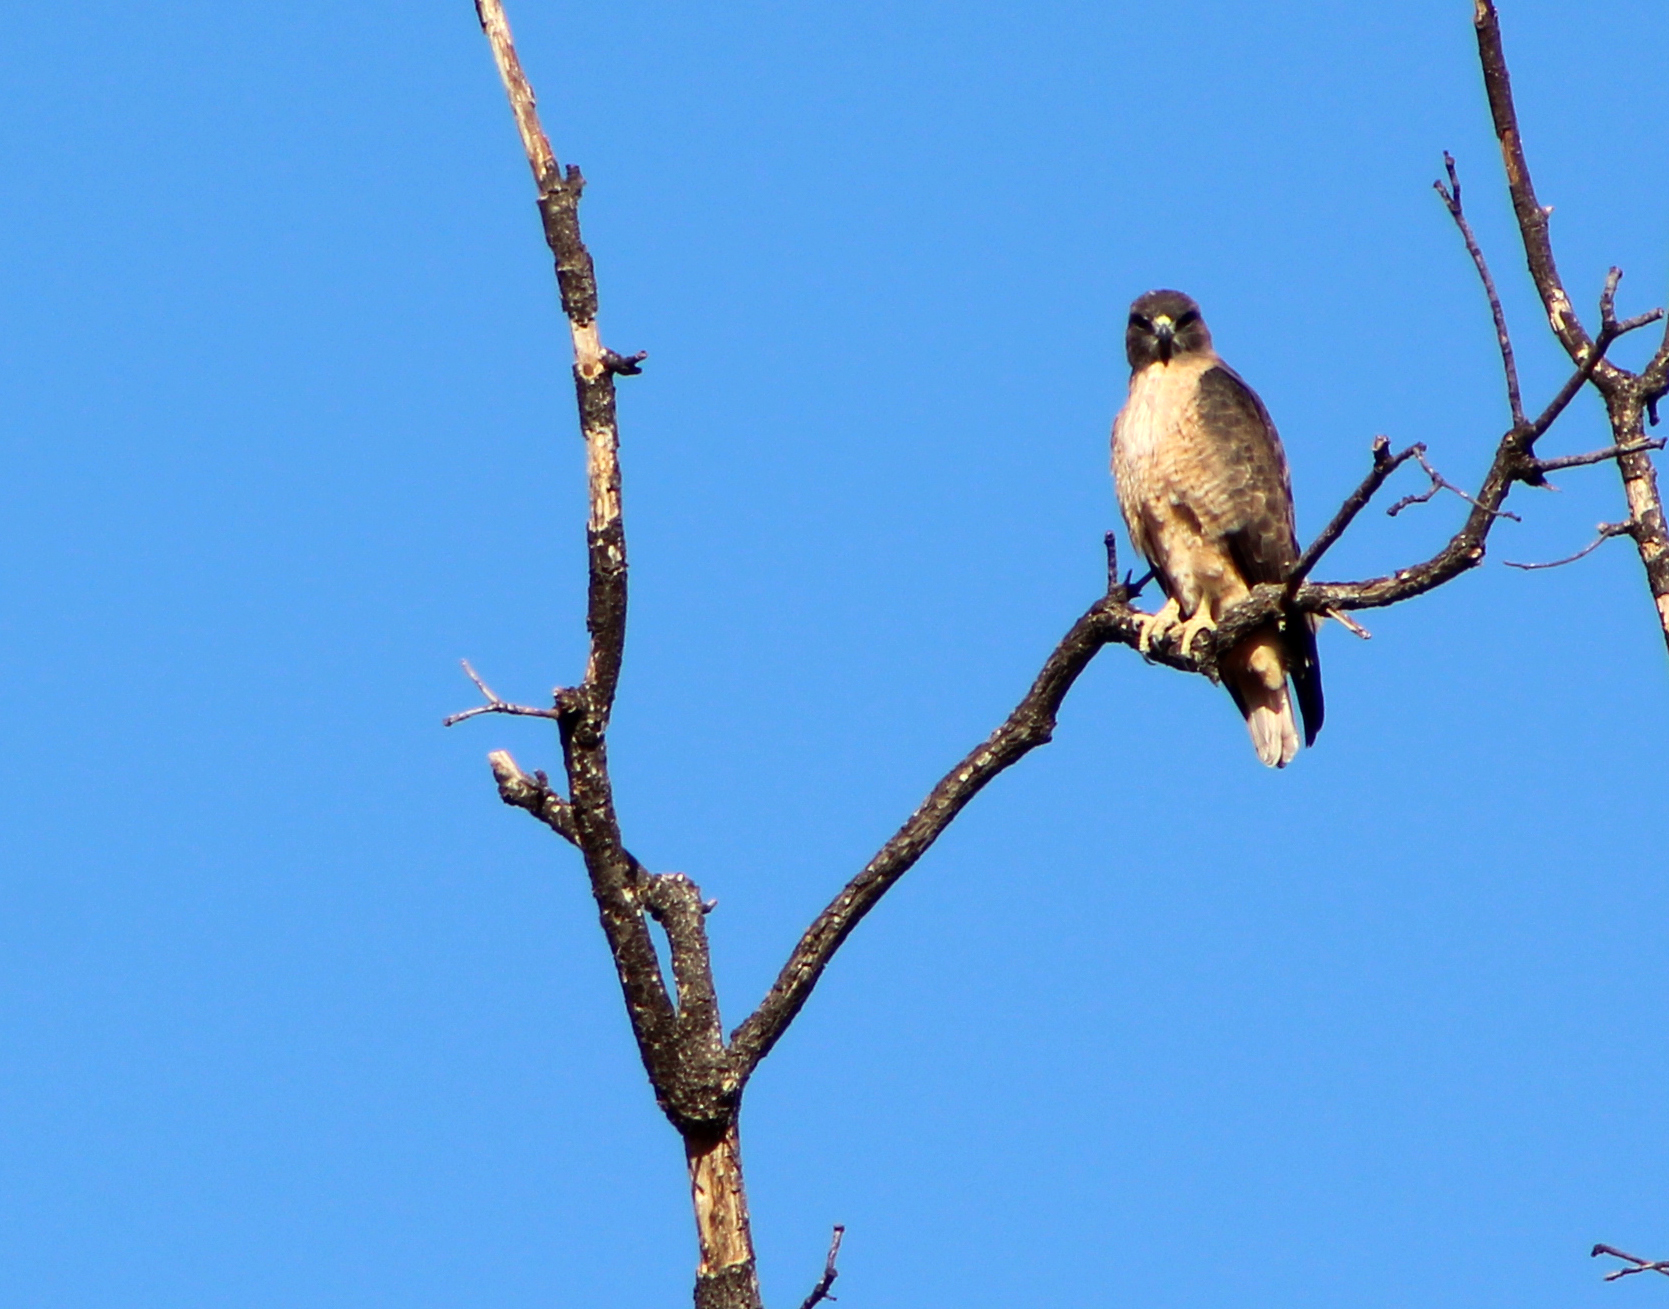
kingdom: Animalia
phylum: Chordata
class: Aves
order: Accipitriformes
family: Accipitridae
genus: Buteo
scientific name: Buteo jamaicensis
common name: Red-tailed hawk
